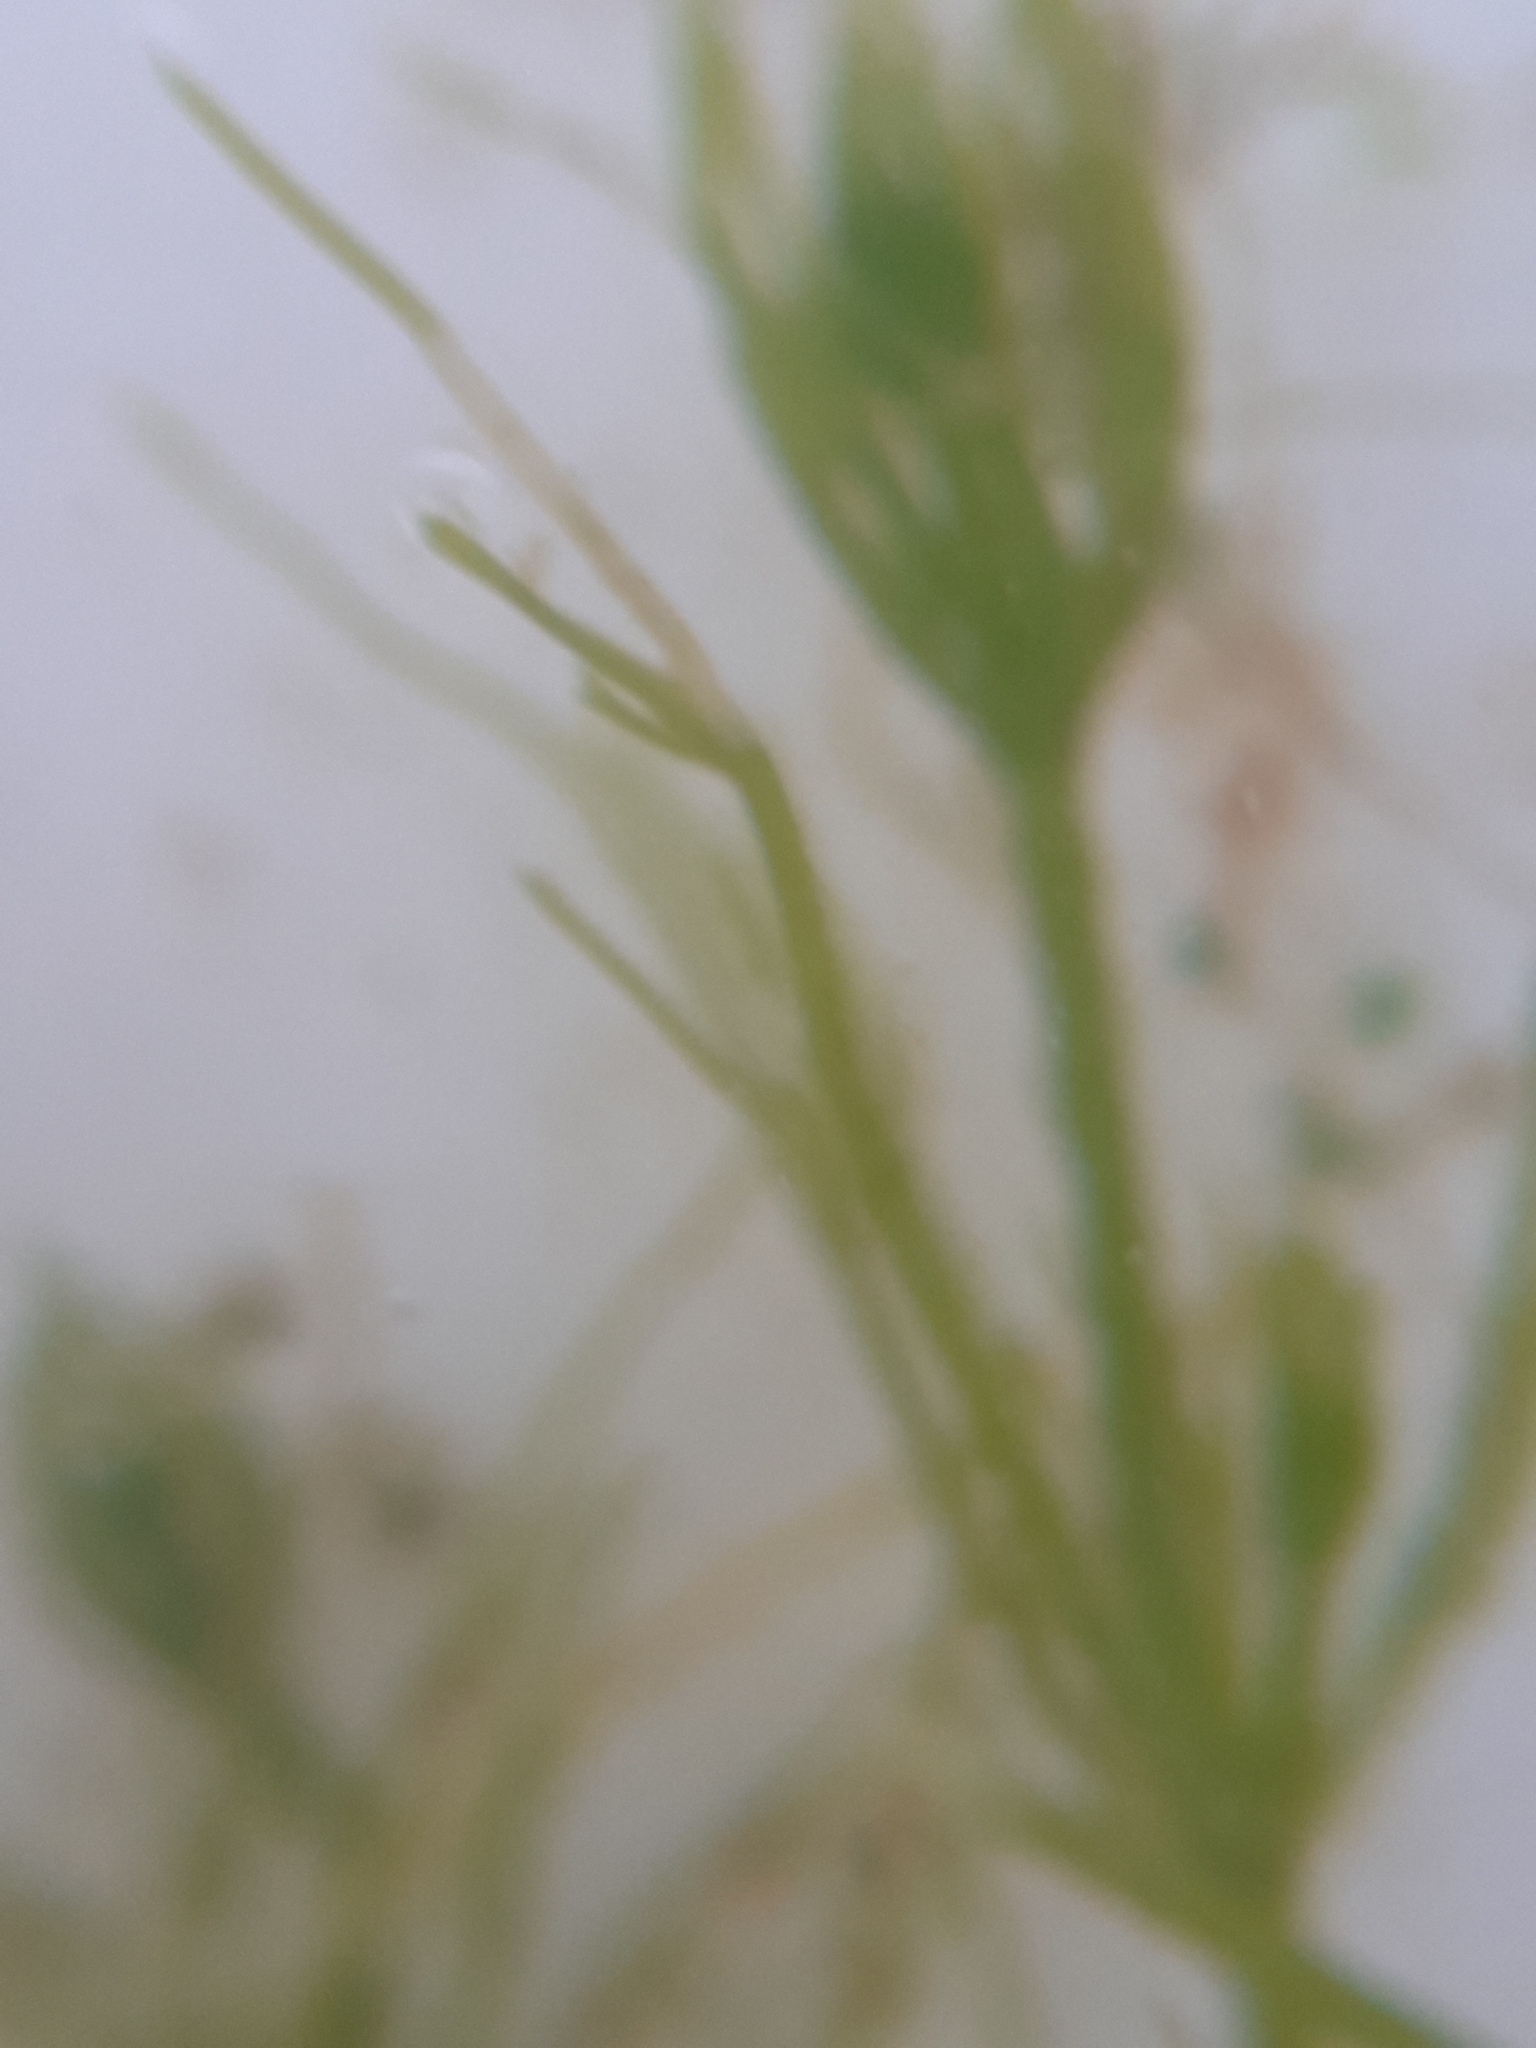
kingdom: Plantae
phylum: Charophyta
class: Charophyceae
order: Charales
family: Characeae
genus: Chara
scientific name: Chara vulgaris
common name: Common stonewort
